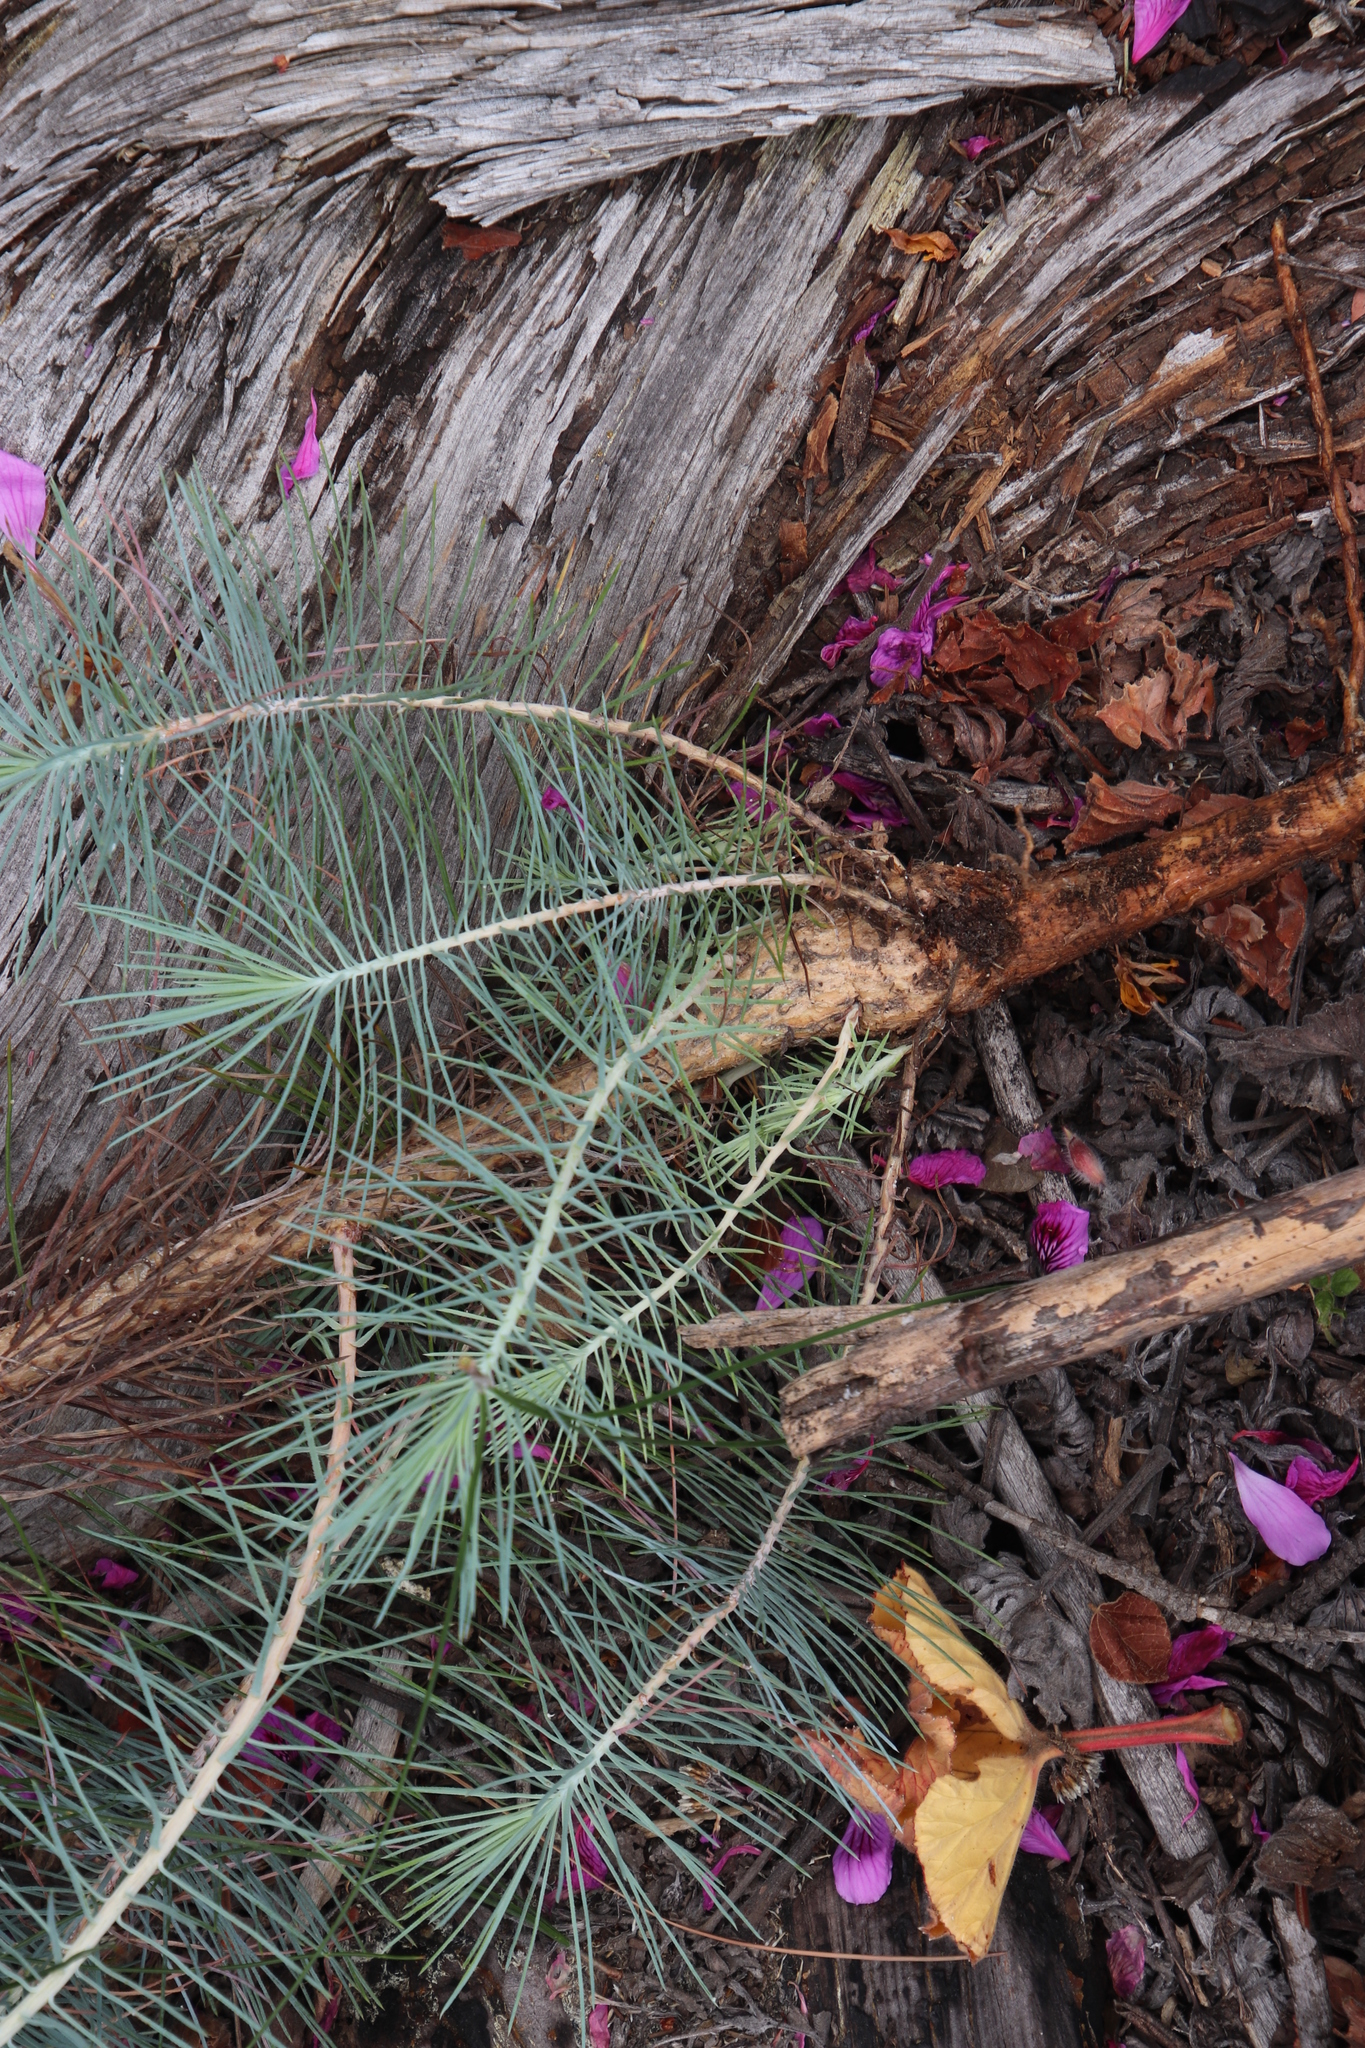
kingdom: Plantae
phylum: Tracheophyta
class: Pinopsida
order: Pinales
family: Pinaceae
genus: Pinus
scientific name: Pinus canariensis
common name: Canary islands pine
